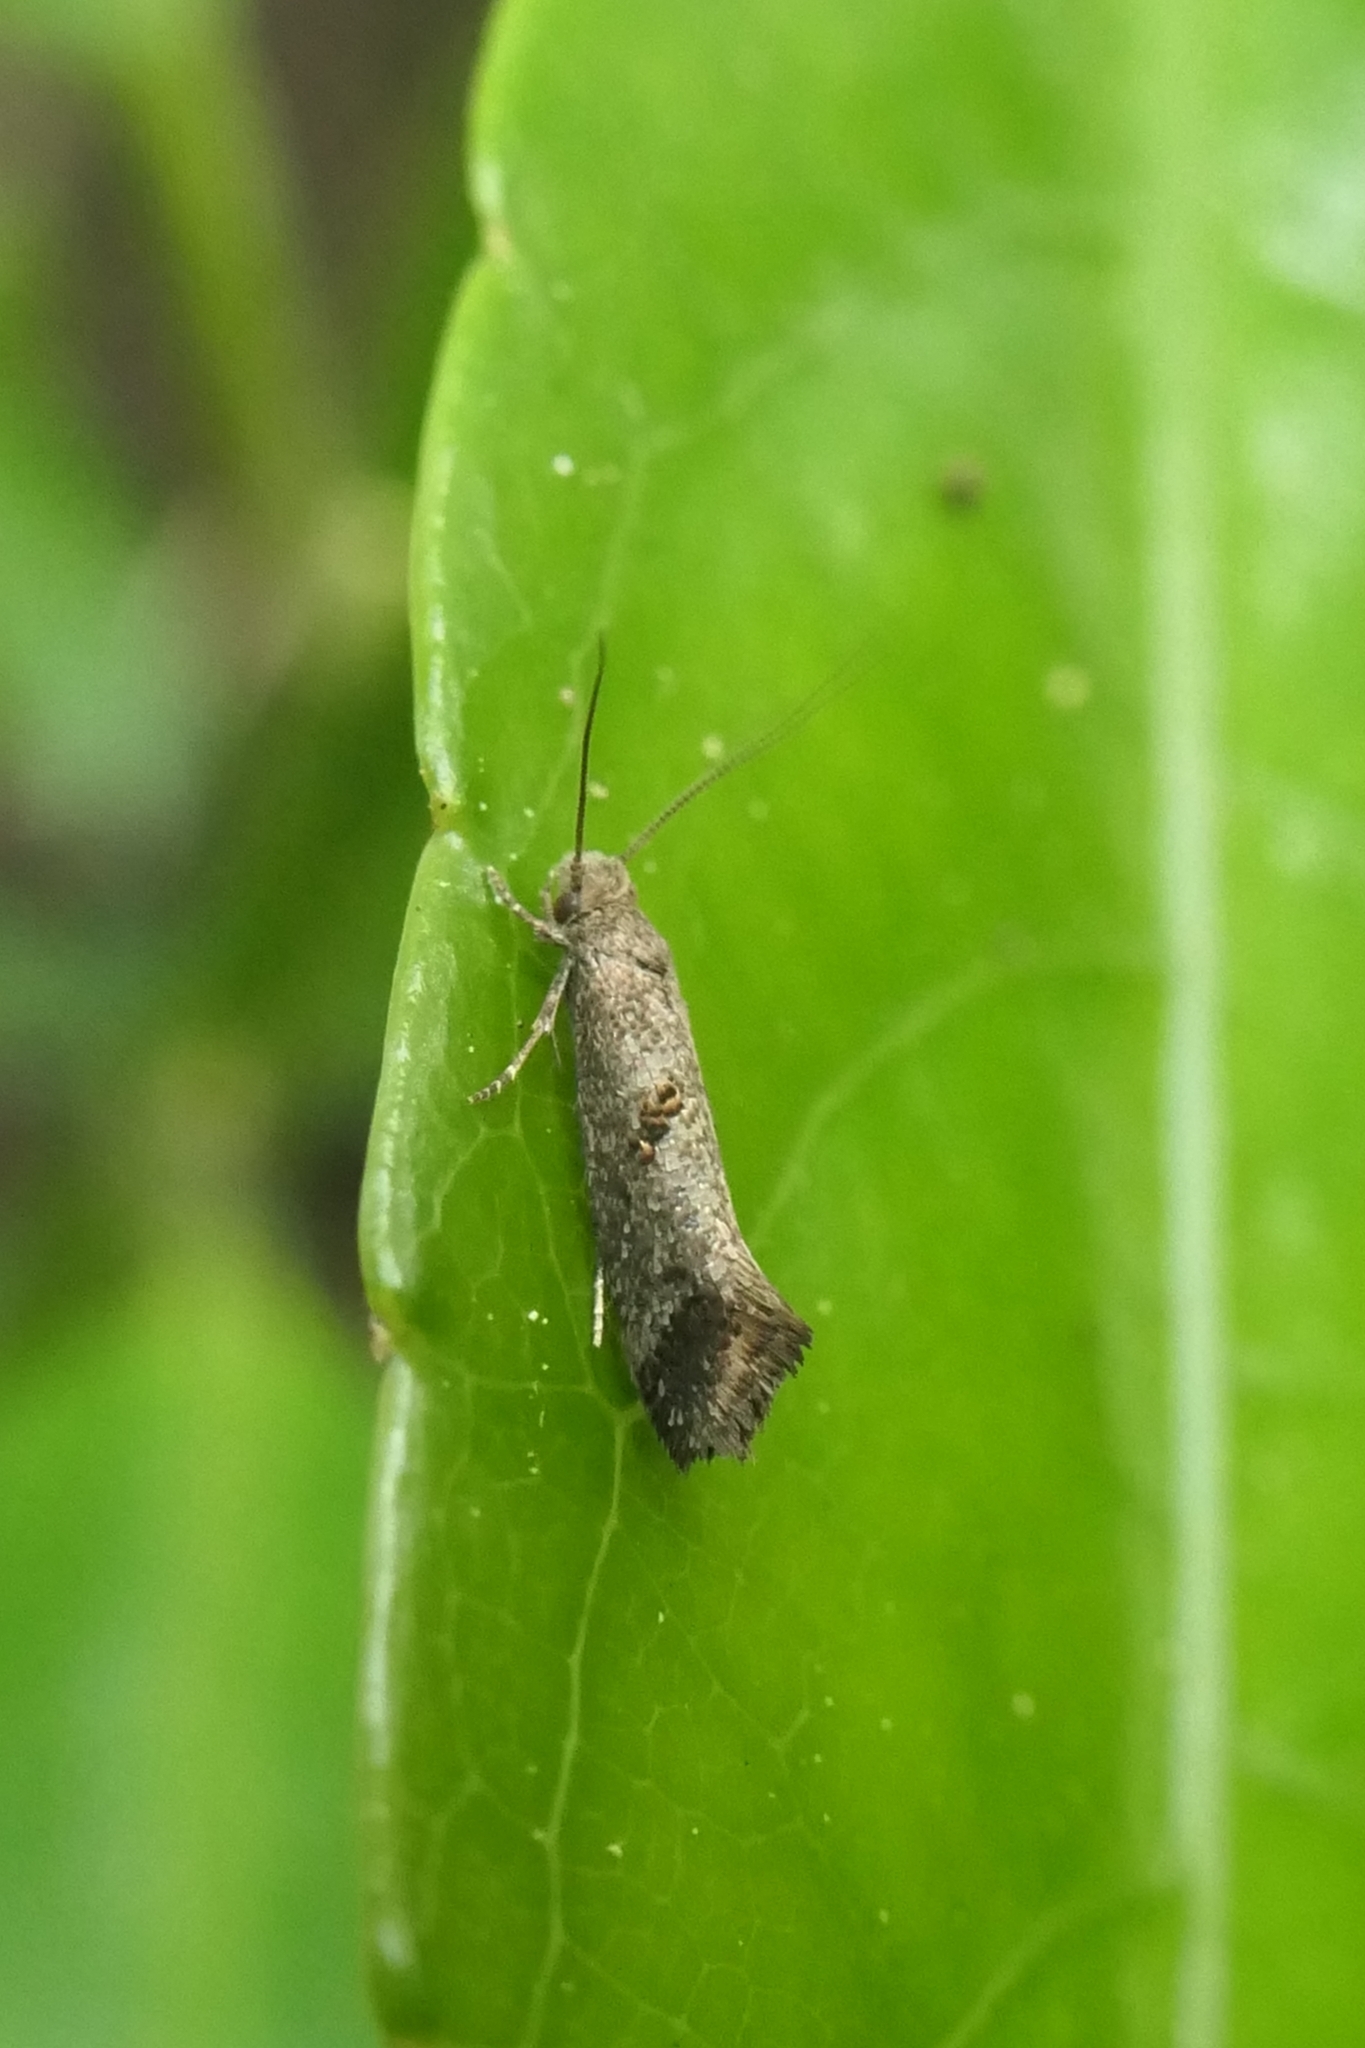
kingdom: Animalia
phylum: Arthropoda
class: Insecta
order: Lepidoptera
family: Tineidae
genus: Tinea
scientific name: Tinea mochlota
